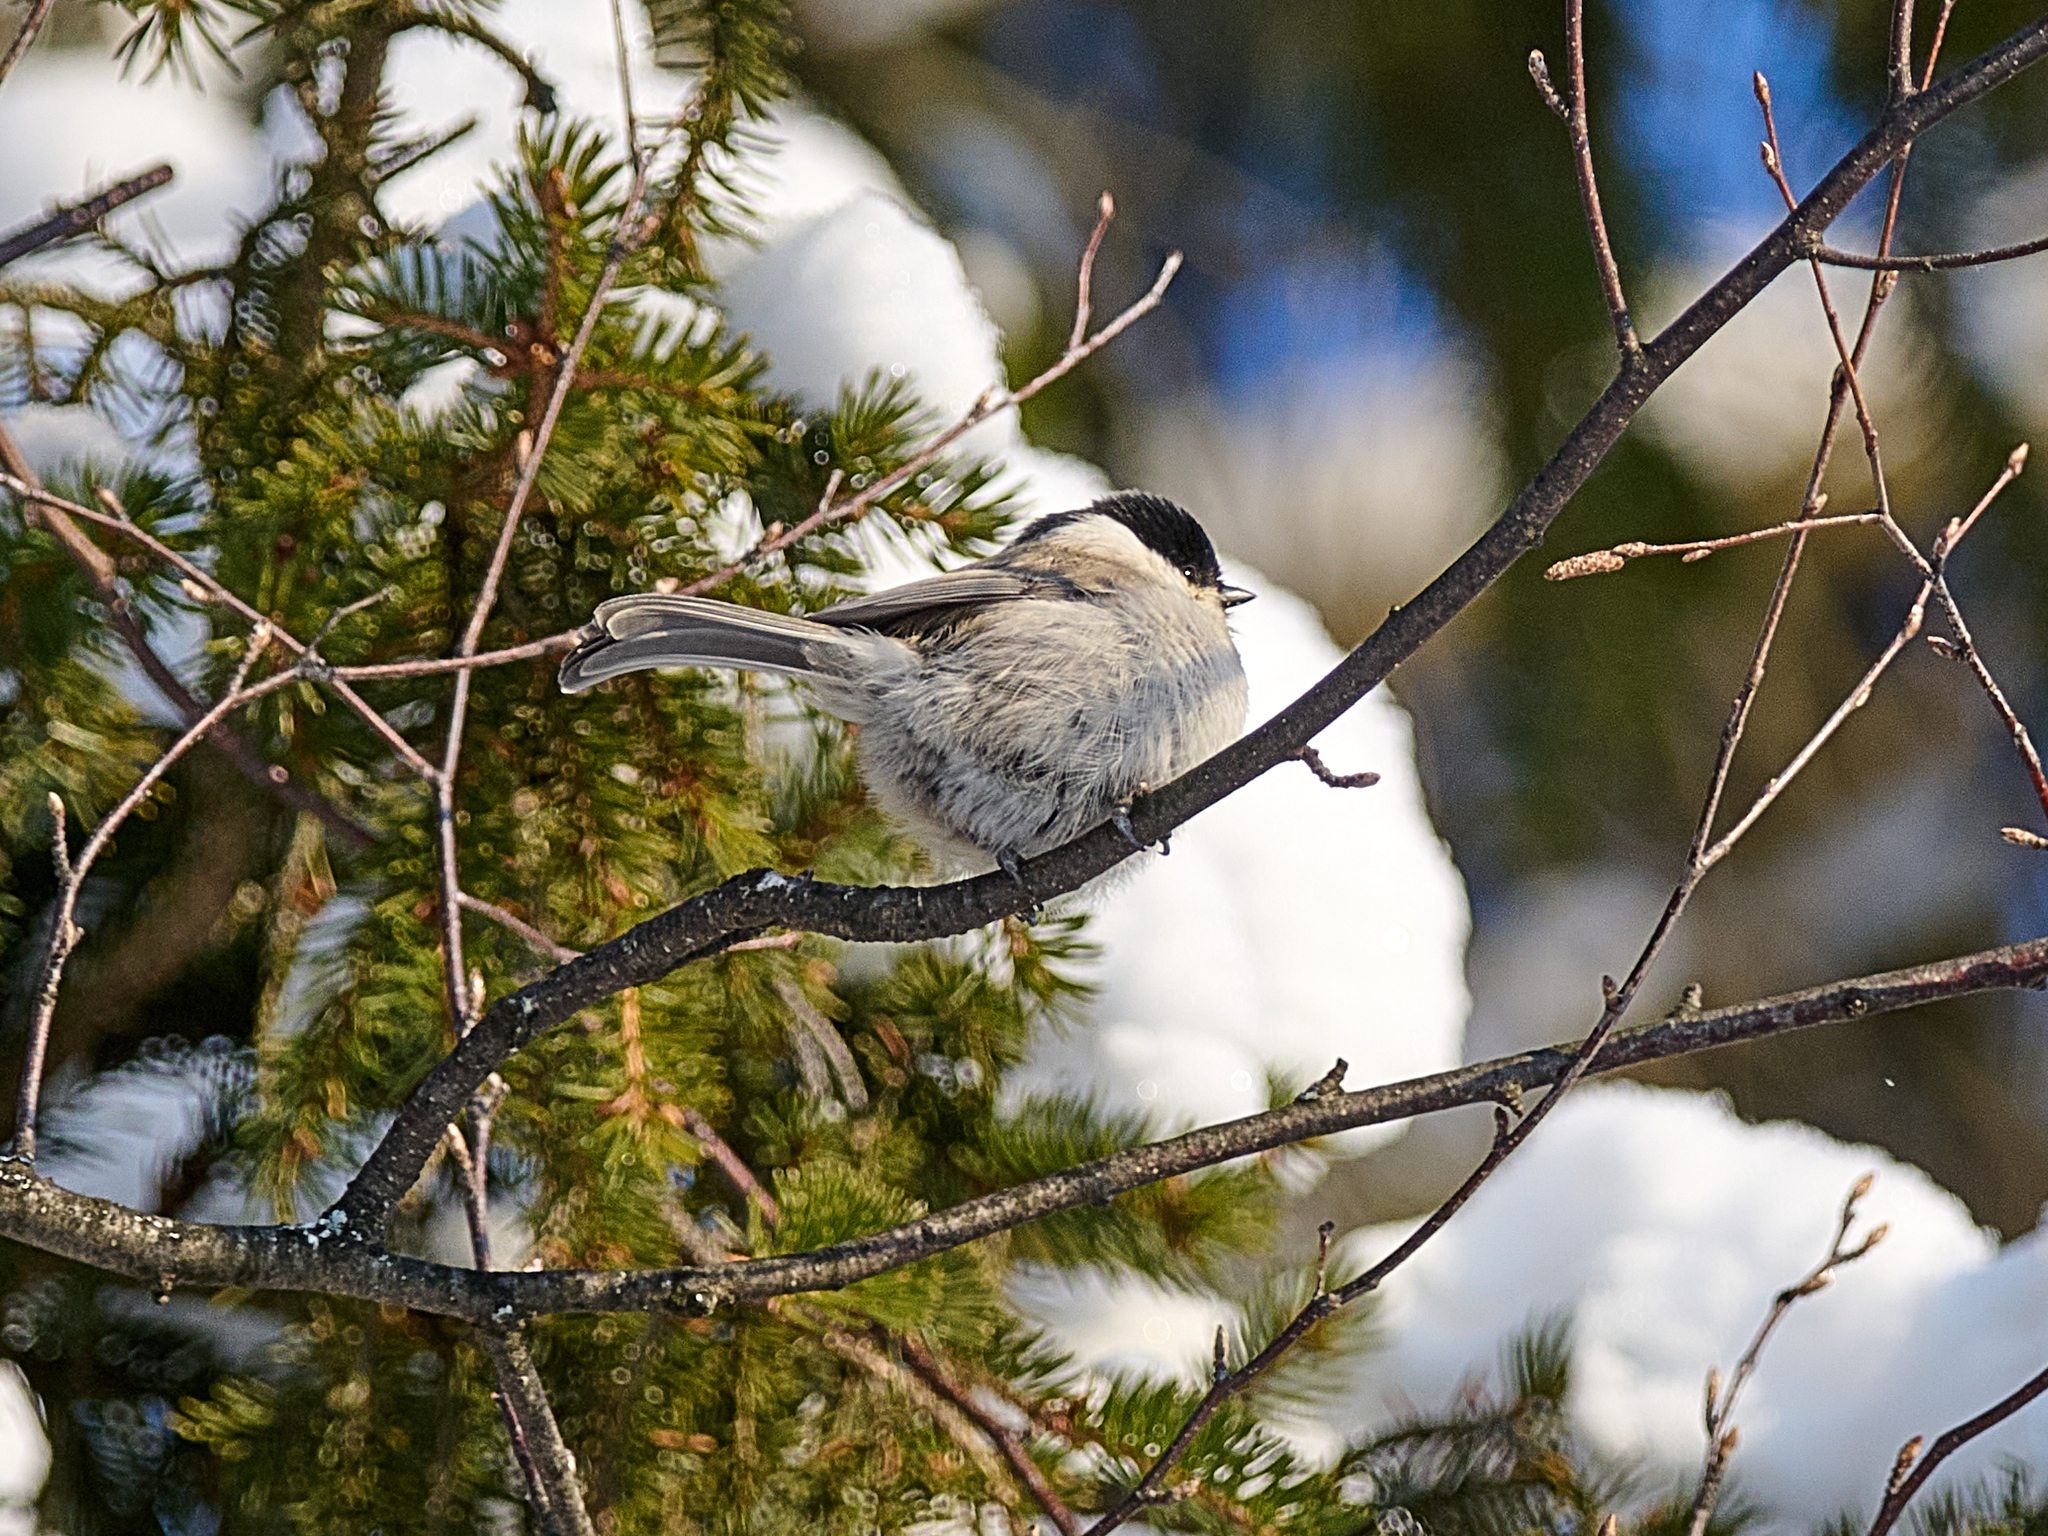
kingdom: Animalia
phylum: Chordata
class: Aves
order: Passeriformes
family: Paridae
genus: Poecile
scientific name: Poecile palustris
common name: Marsh tit
